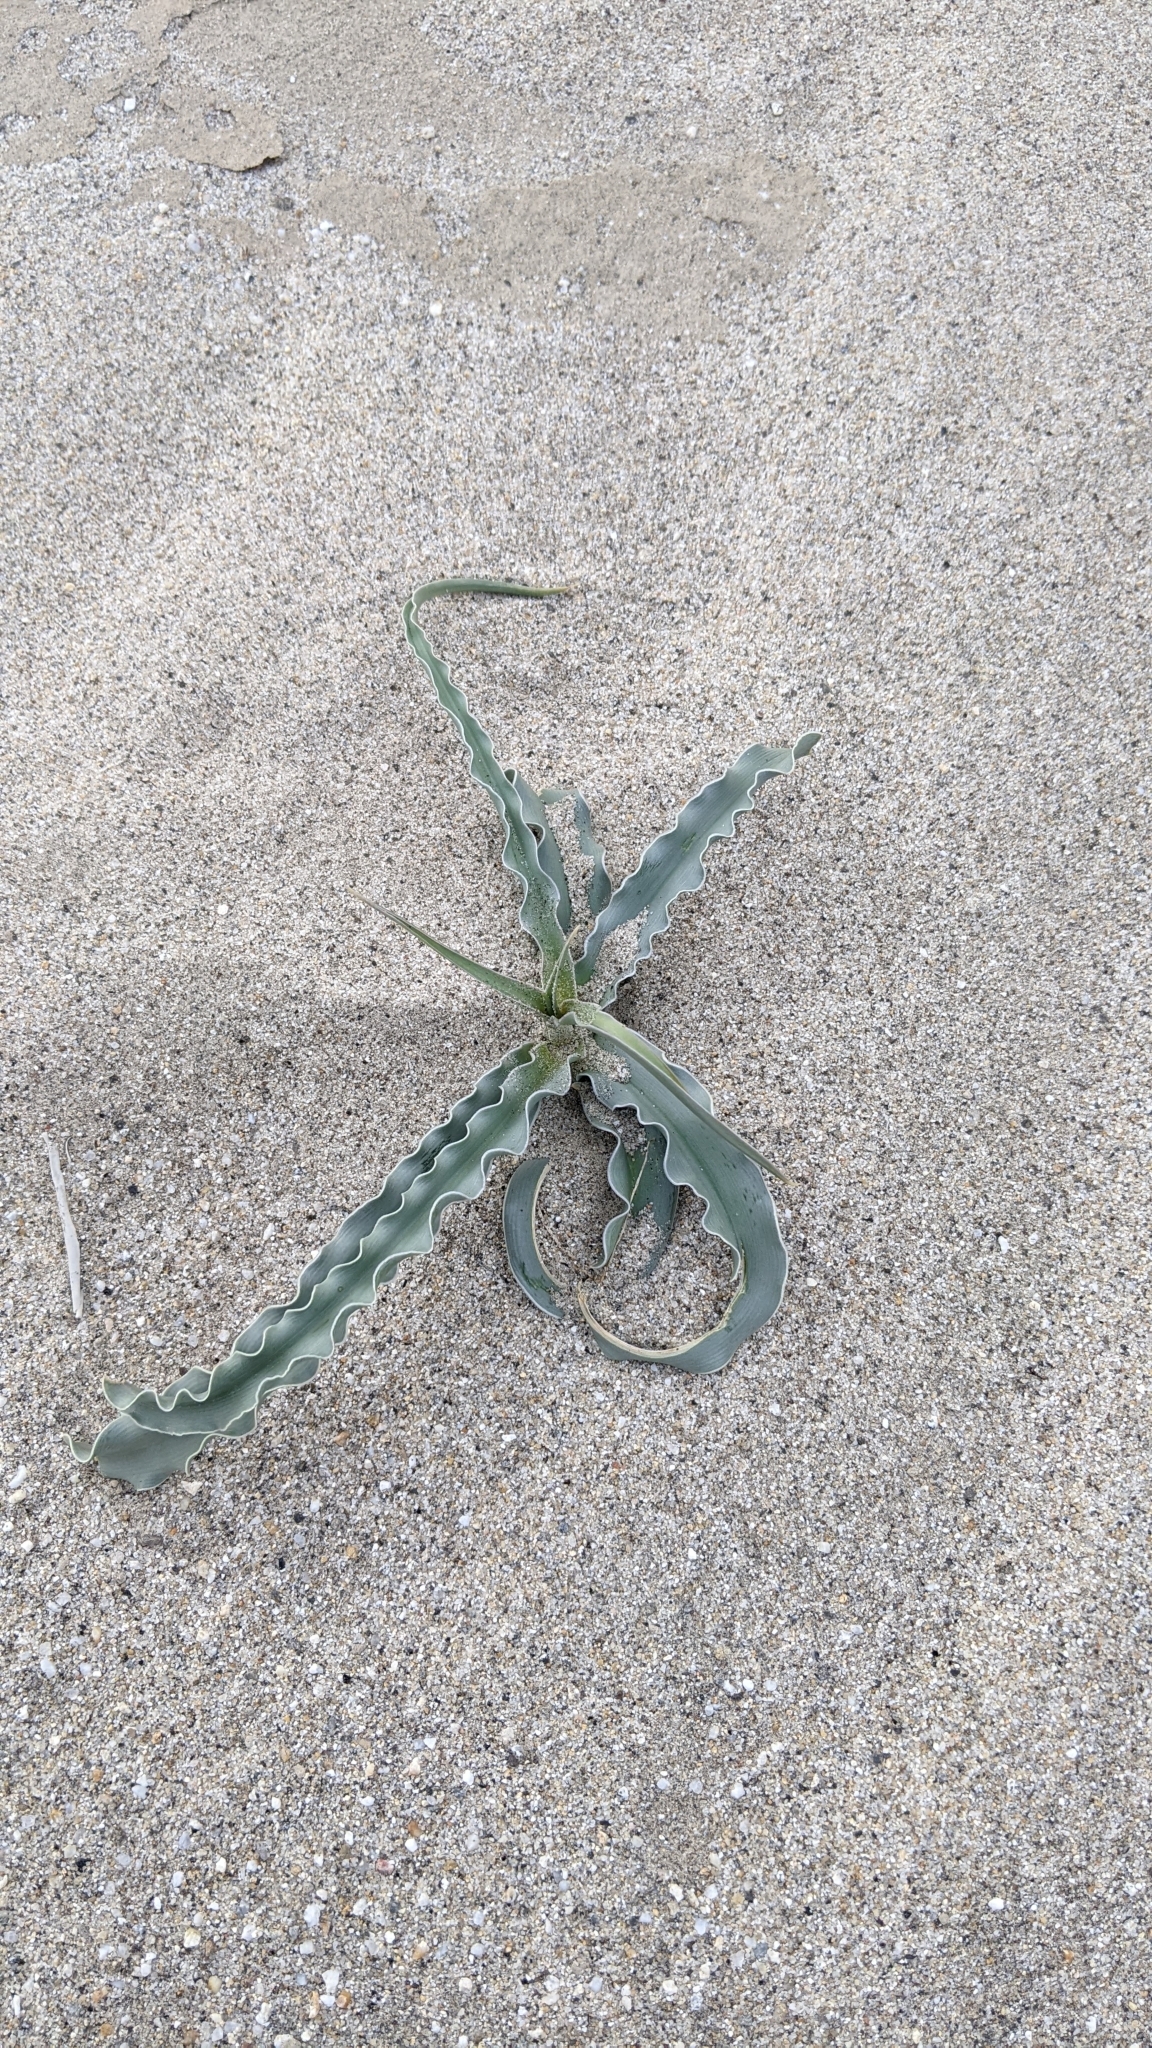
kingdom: Plantae
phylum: Tracheophyta
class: Liliopsida
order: Asparagales
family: Asparagaceae
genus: Hesperocallis
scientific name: Hesperocallis undulata
